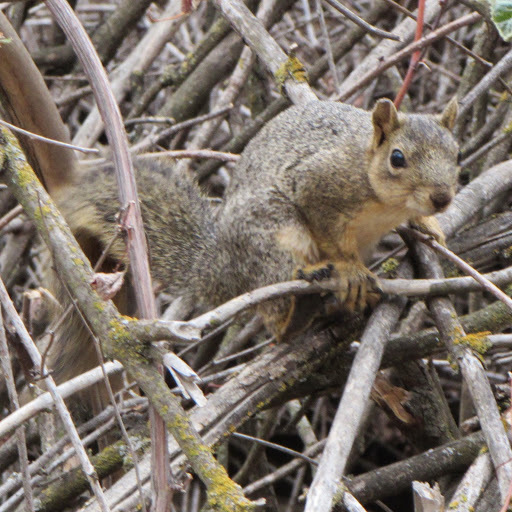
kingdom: Animalia
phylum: Chordata
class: Mammalia
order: Rodentia
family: Sciuridae
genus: Sciurus
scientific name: Sciurus niger
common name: Fox squirrel
